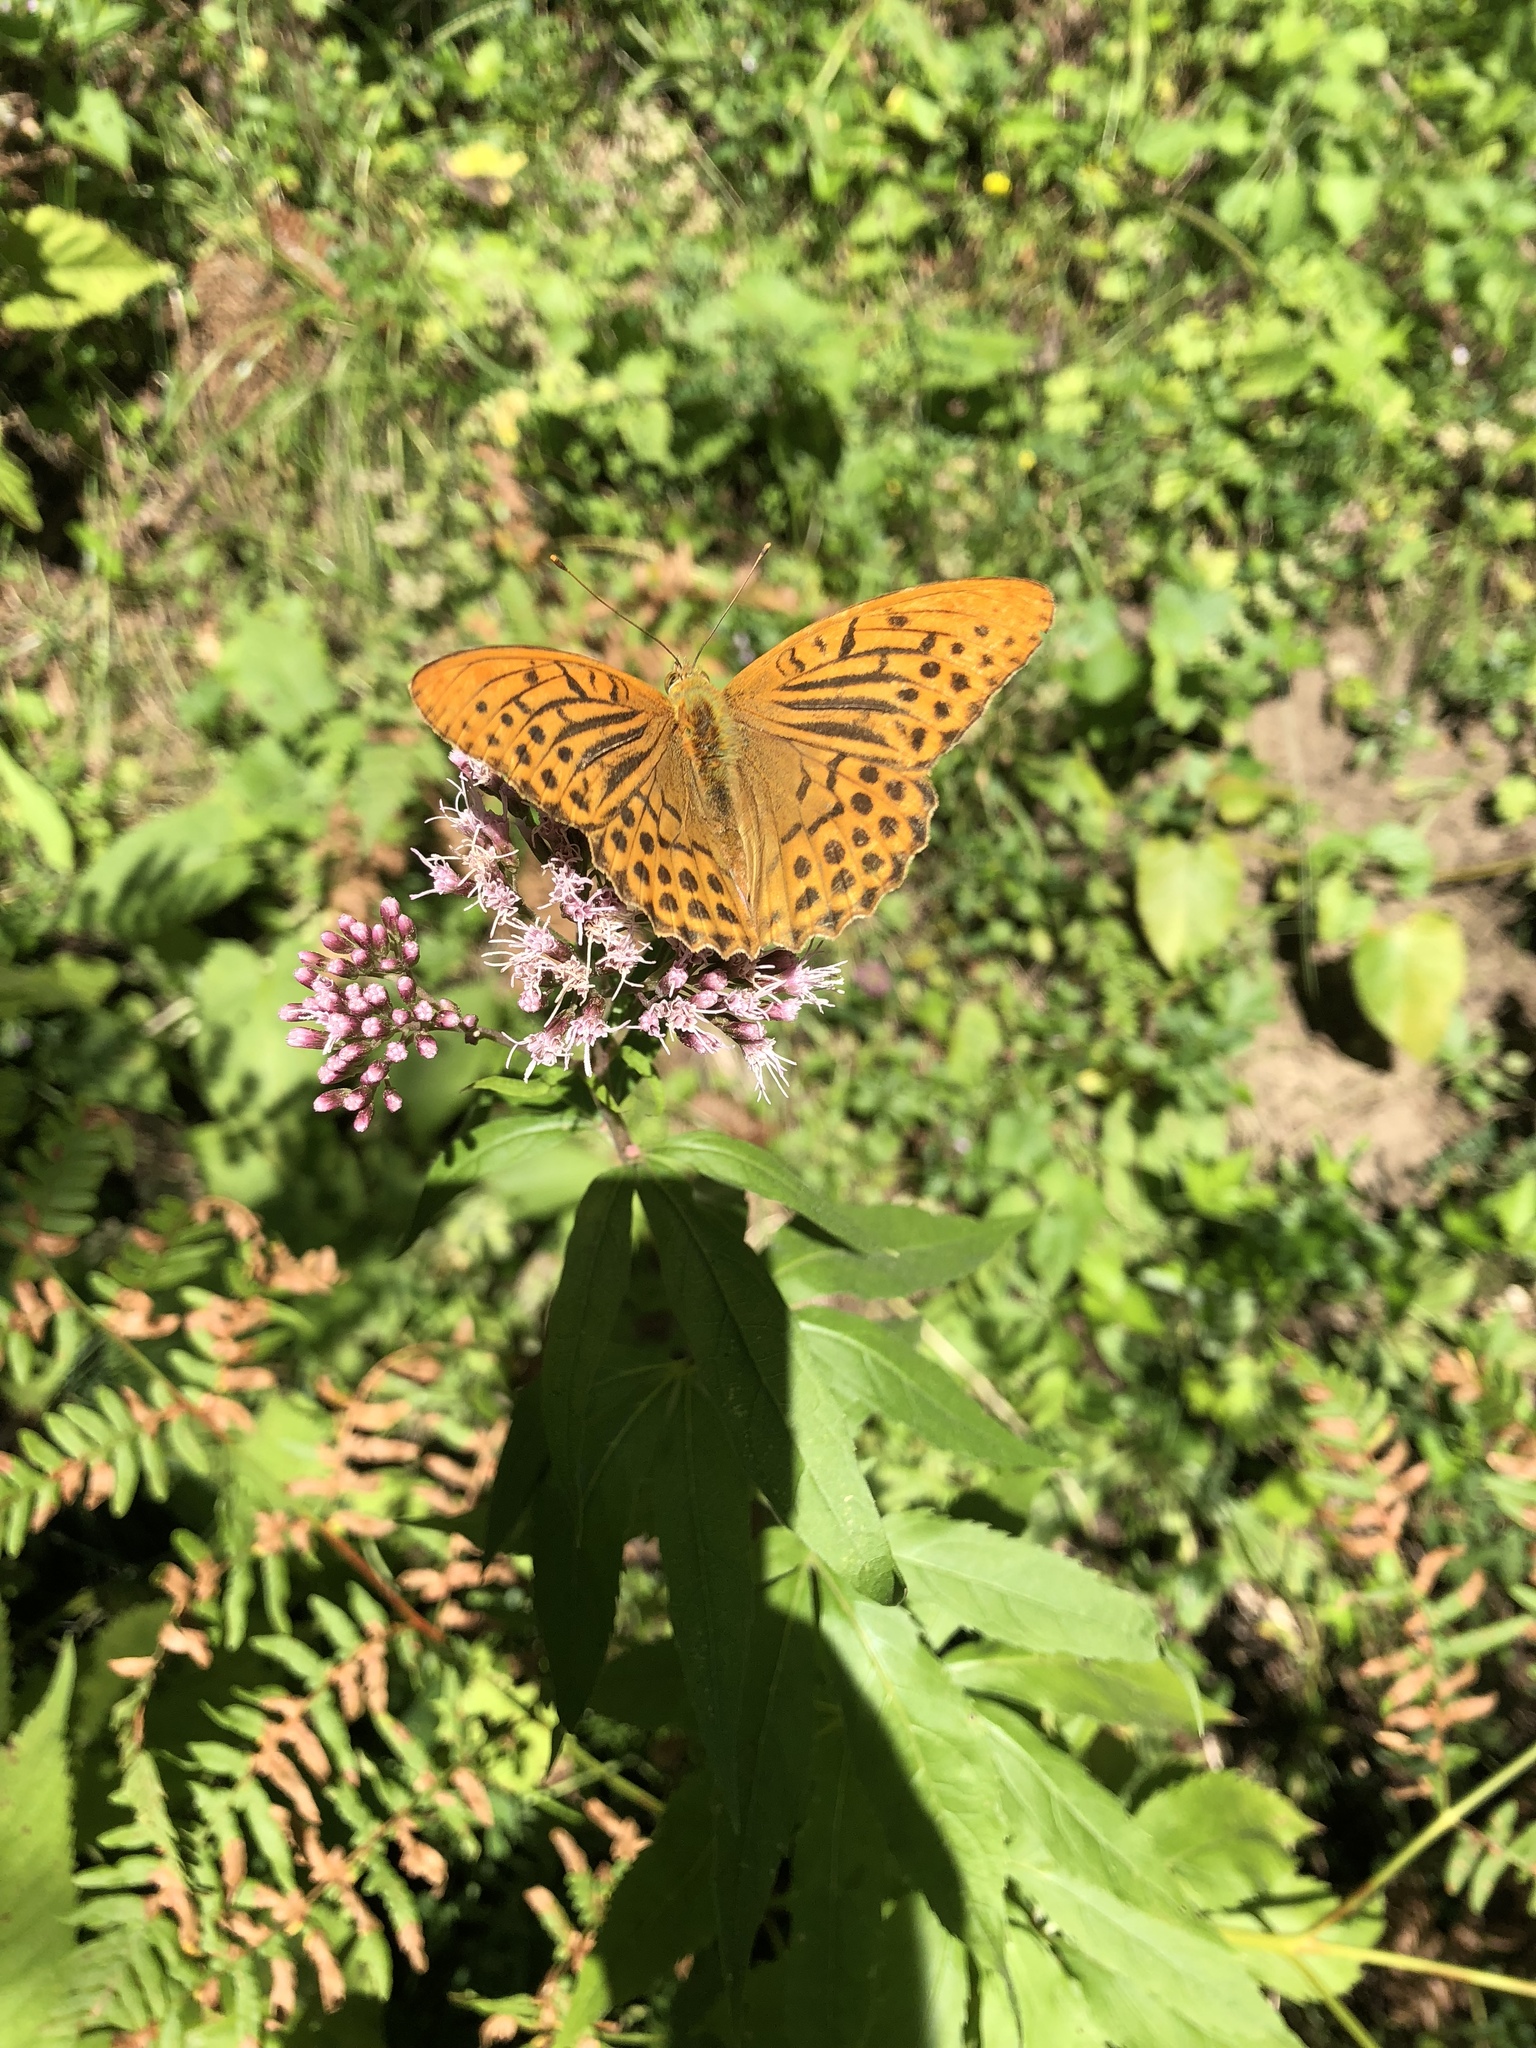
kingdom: Animalia
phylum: Arthropoda
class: Insecta
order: Lepidoptera
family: Nymphalidae
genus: Argynnis
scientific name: Argynnis paphia
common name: Silver-washed fritillary
